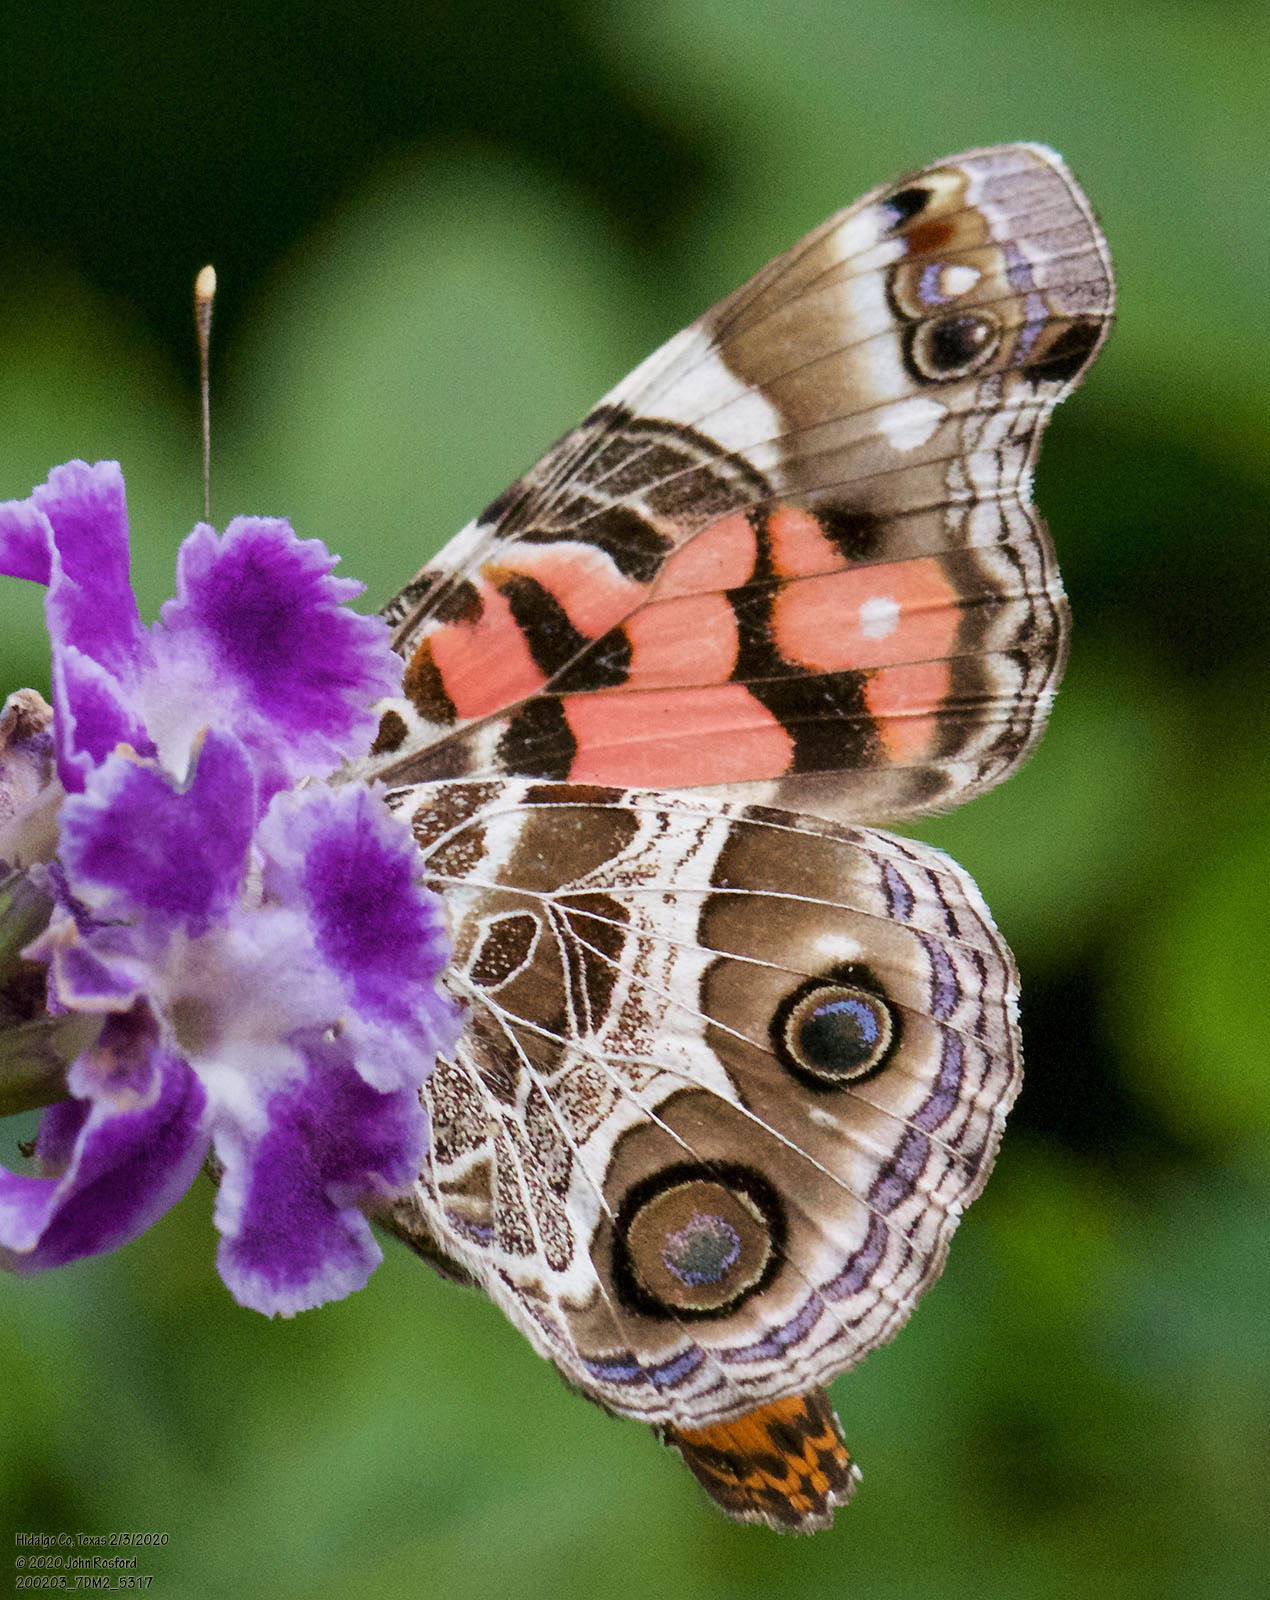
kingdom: Animalia
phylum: Arthropoda
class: Insecta
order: Lepidoptera
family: Nymphalidae
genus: Vanessa
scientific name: Vanessa virginiensis
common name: American lady
